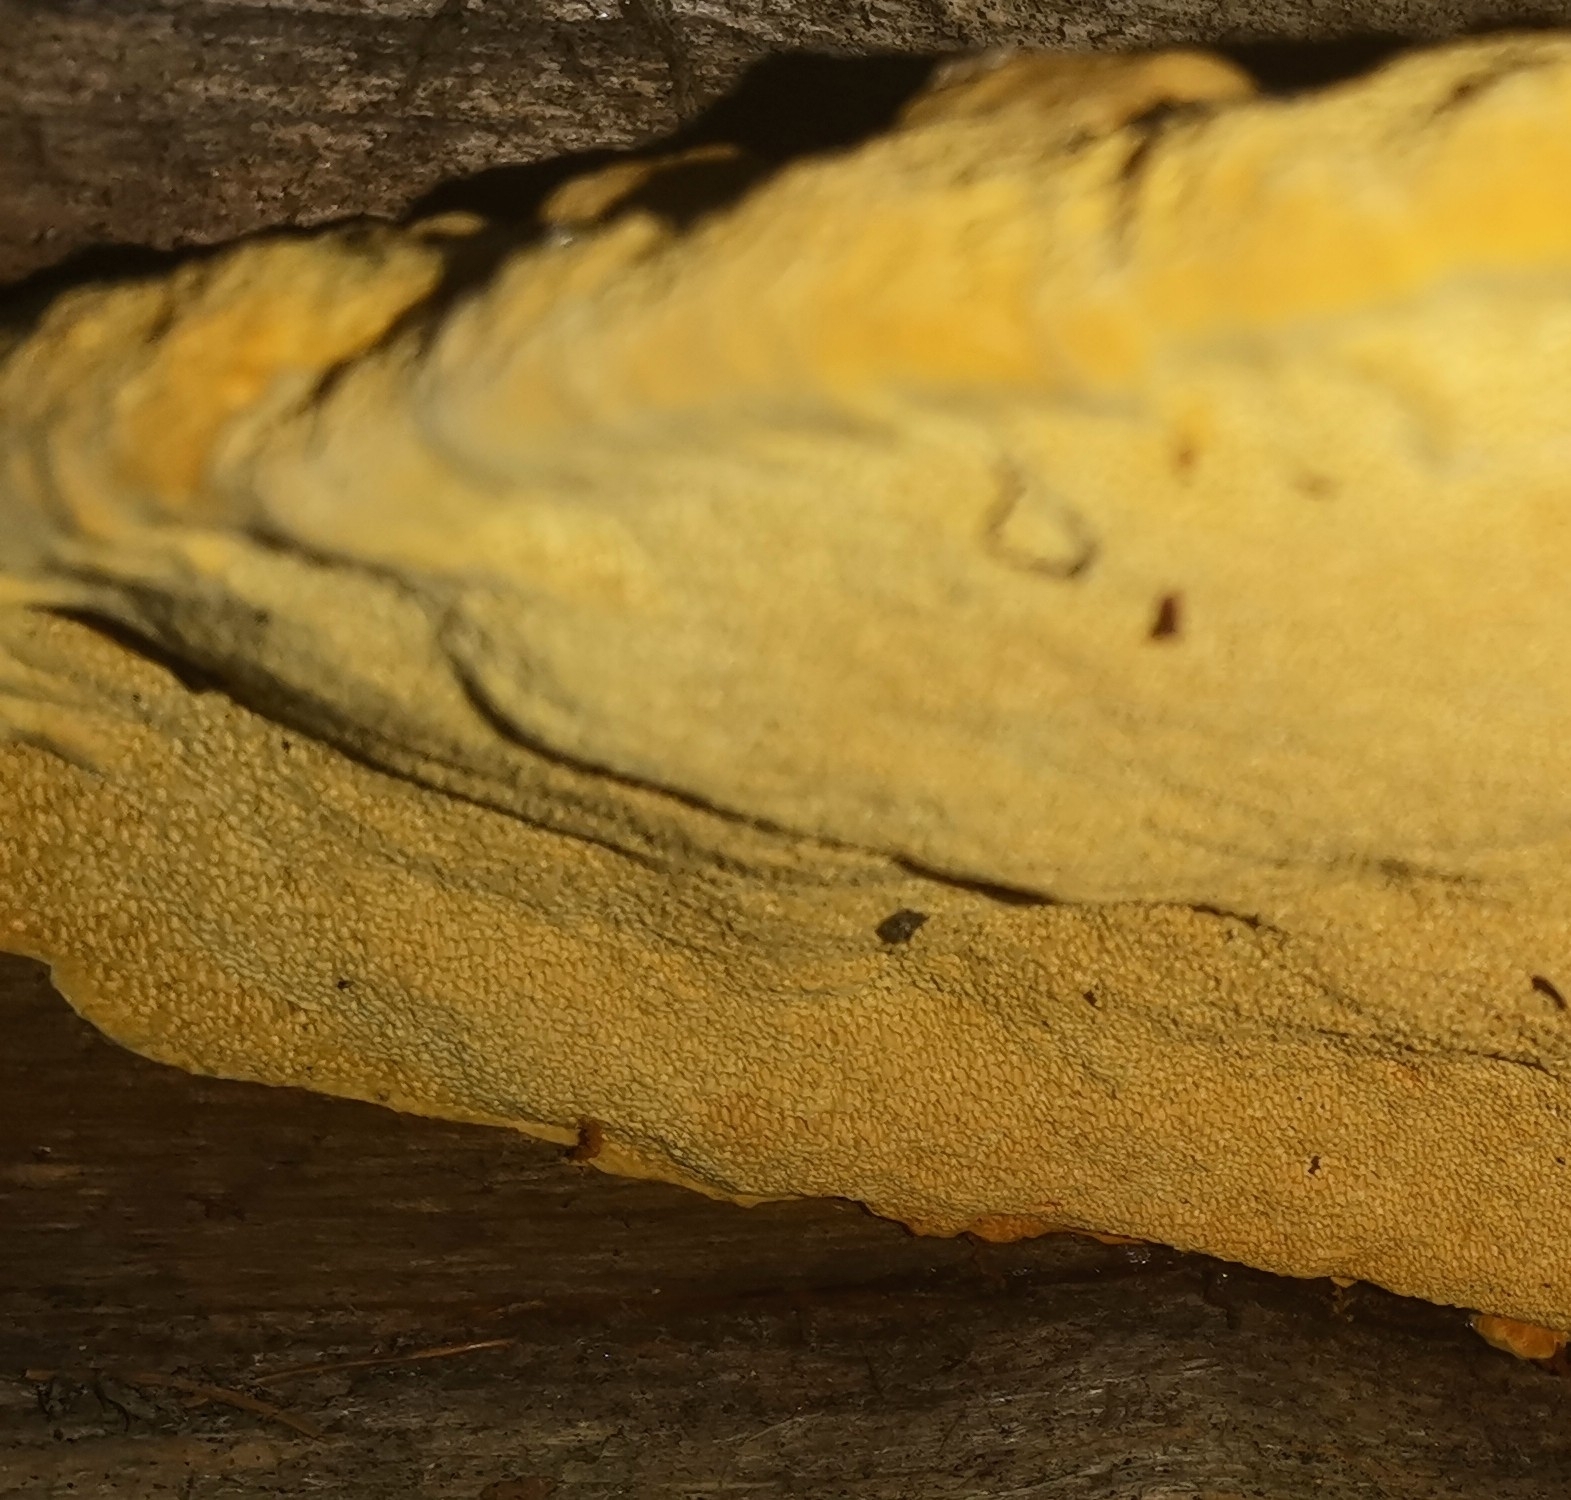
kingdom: Fungi
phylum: Basidiomycota
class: Agaricomycetes
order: Gloeophyllales
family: Gloeophyllaceae
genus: Gloeophyllum
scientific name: Gloeophyllum odoratum
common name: Anise mazegill
